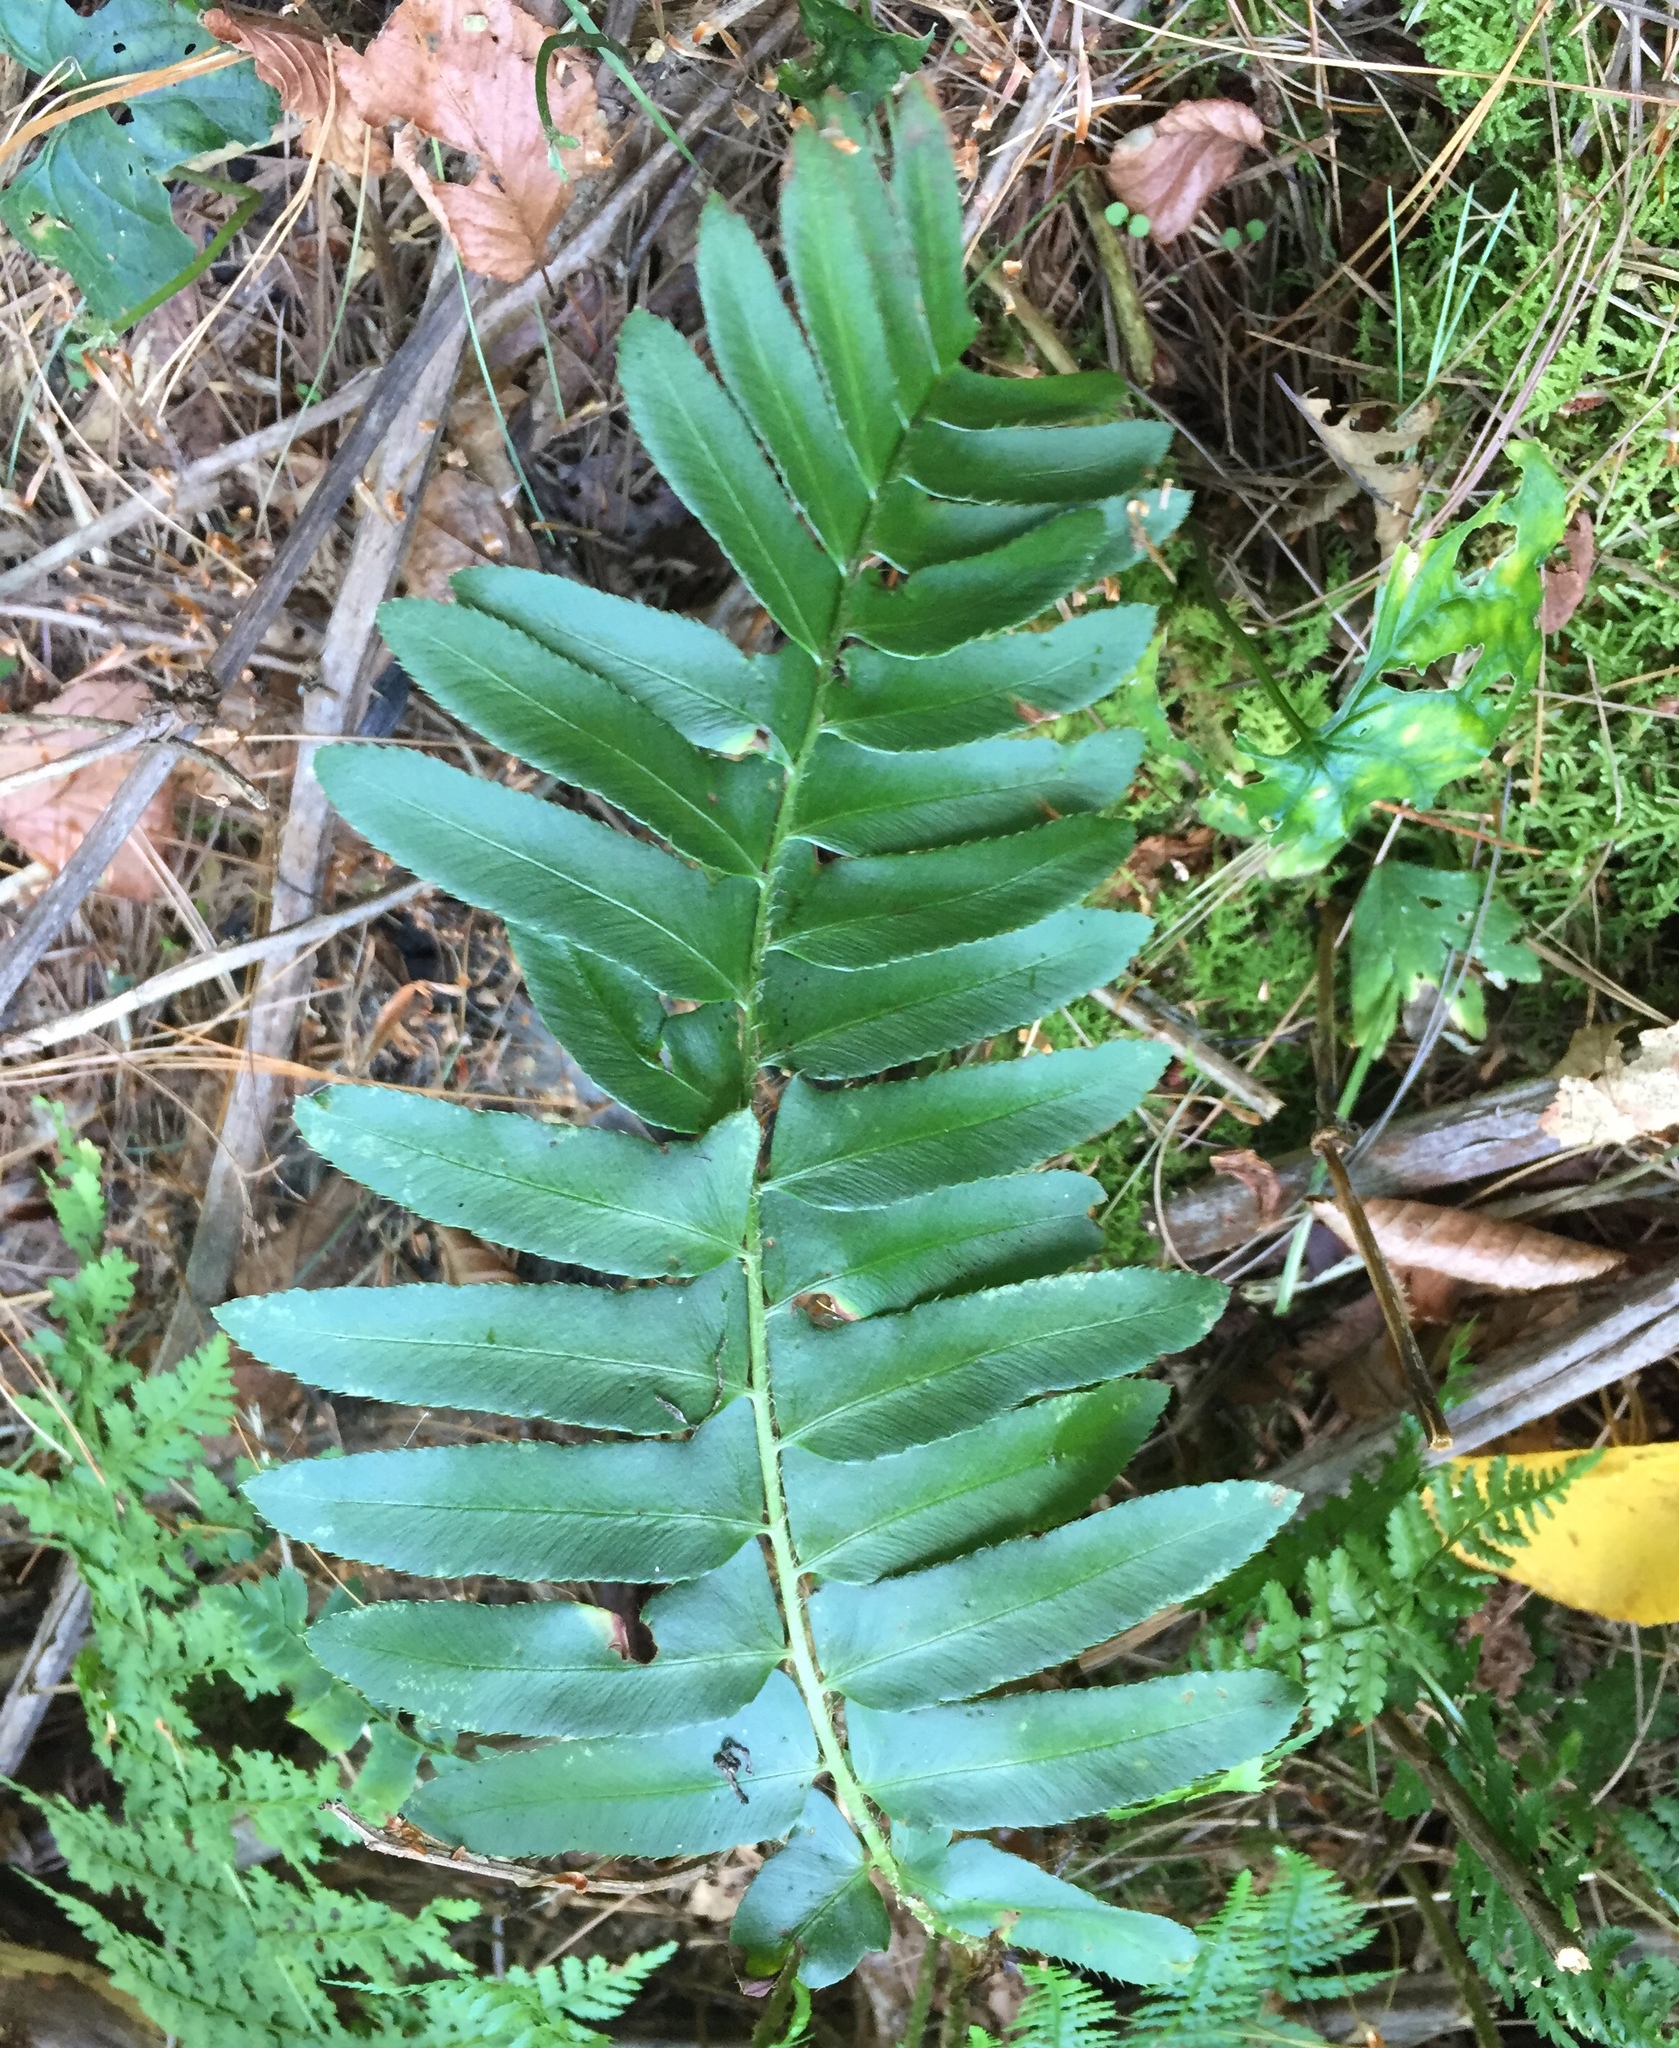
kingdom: Plantae
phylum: Tracheophyta
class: Polypodiopsida
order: Polypodiales
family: Dryopteridaceae
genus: Polystichum
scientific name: Polystichum acrostichoides
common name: Christmas fern
